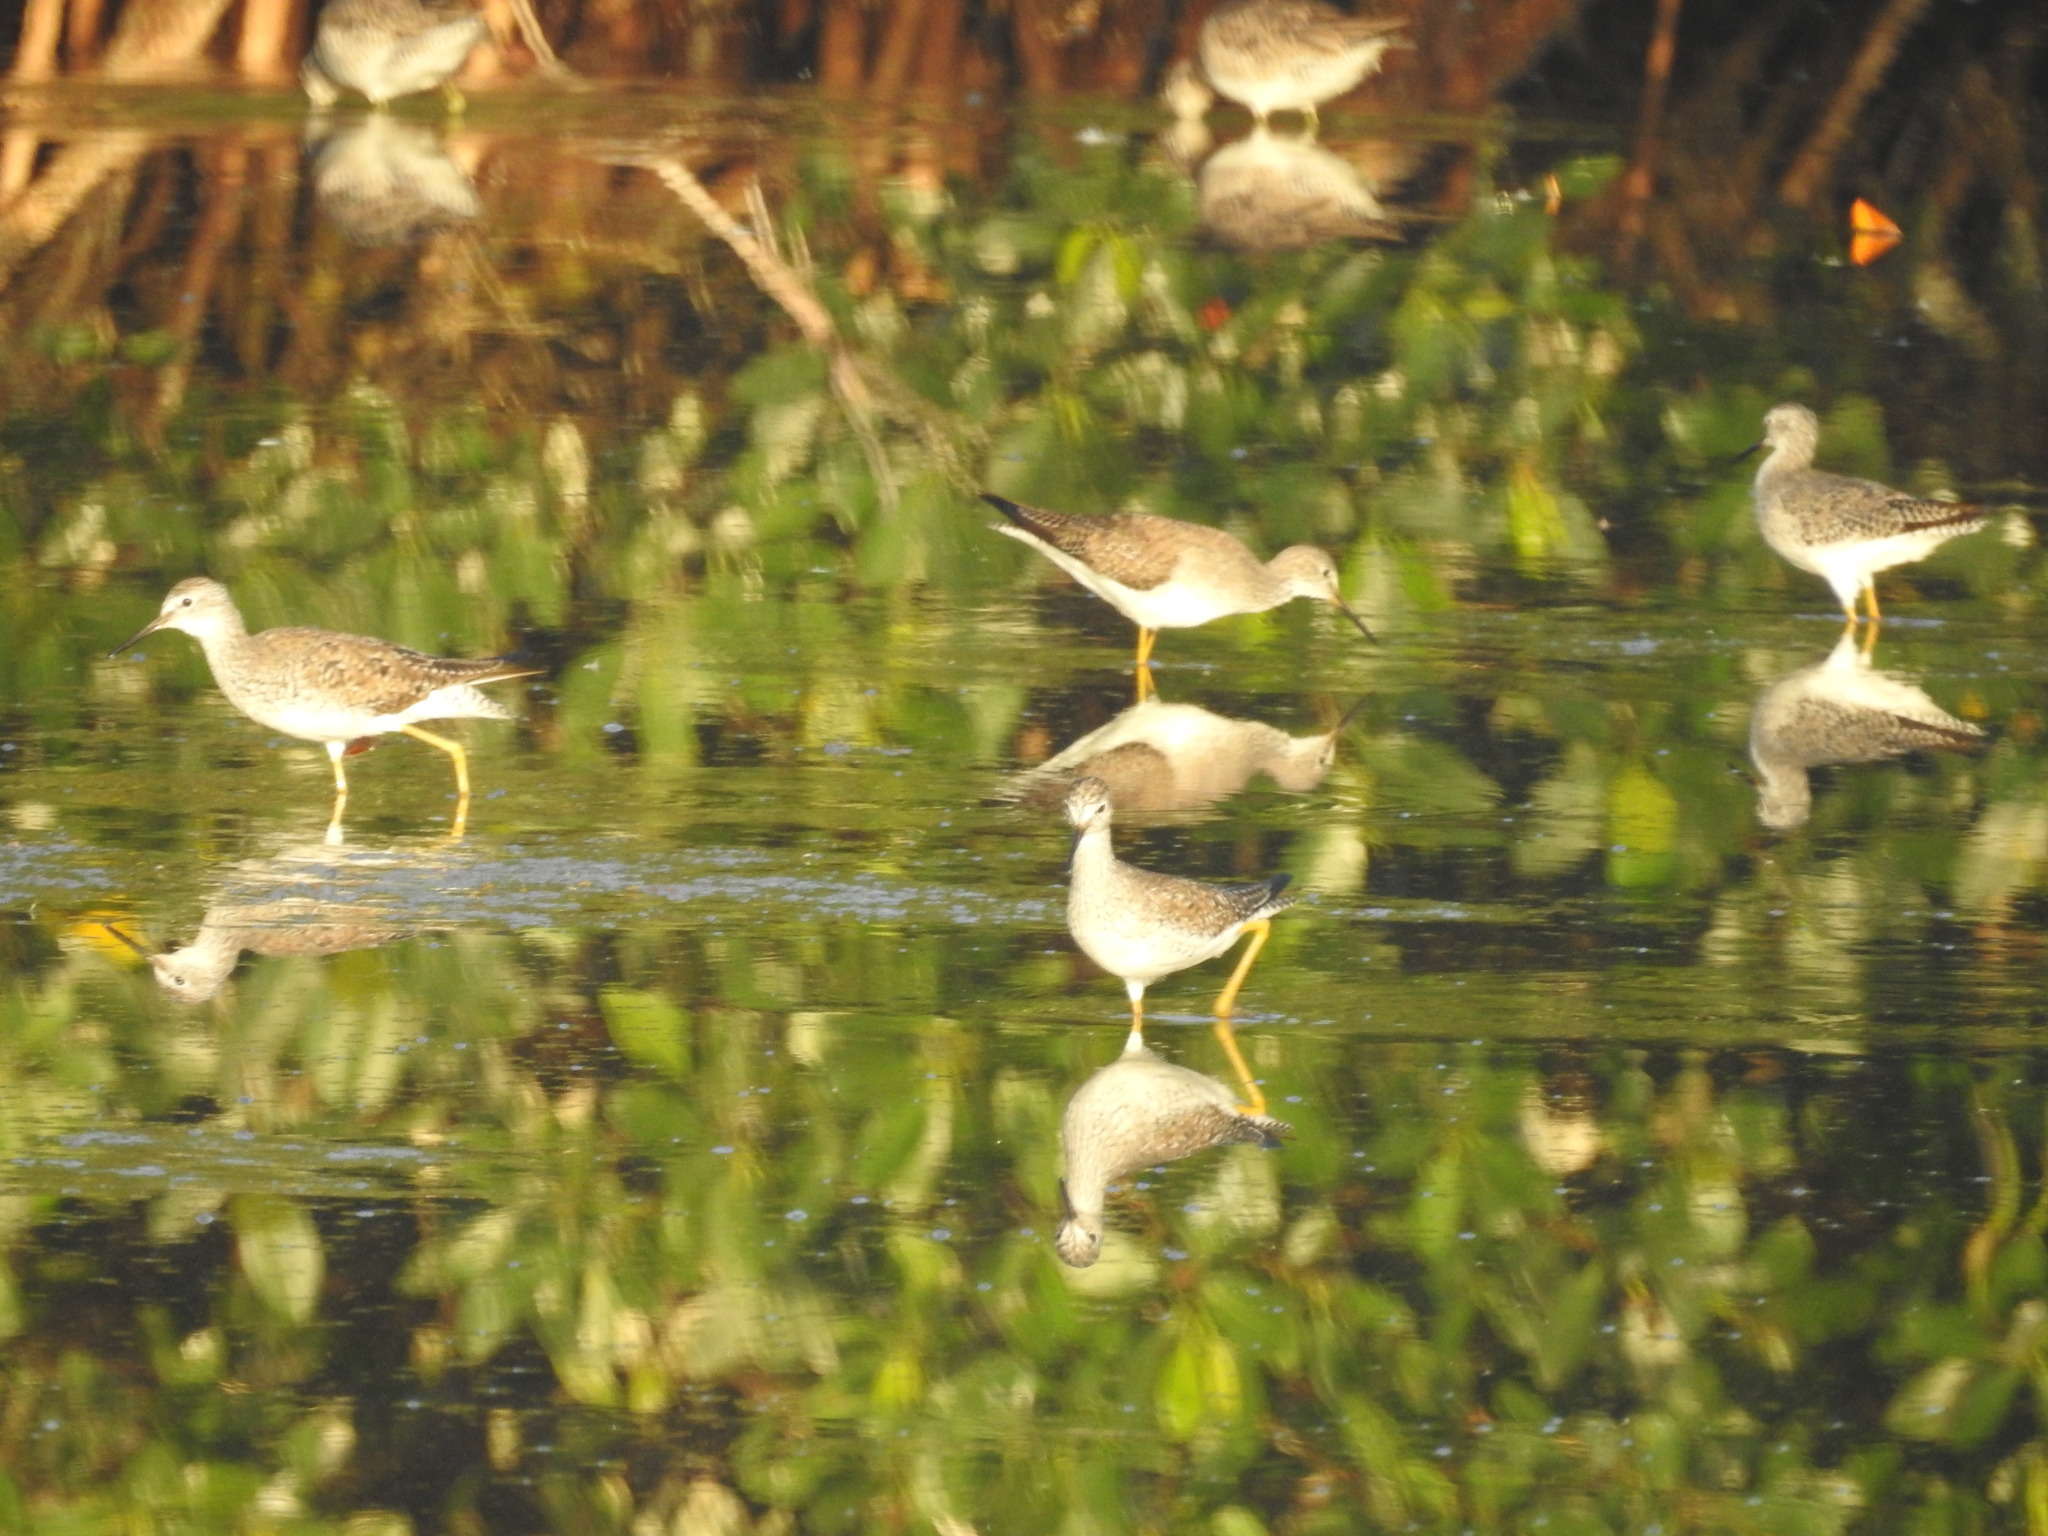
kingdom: Animalia
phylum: Chordata
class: Aves
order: Charadriiformes
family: Scolopacidae
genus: Tringa
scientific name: Tringa flavipes
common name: Lesser yellowlegs
